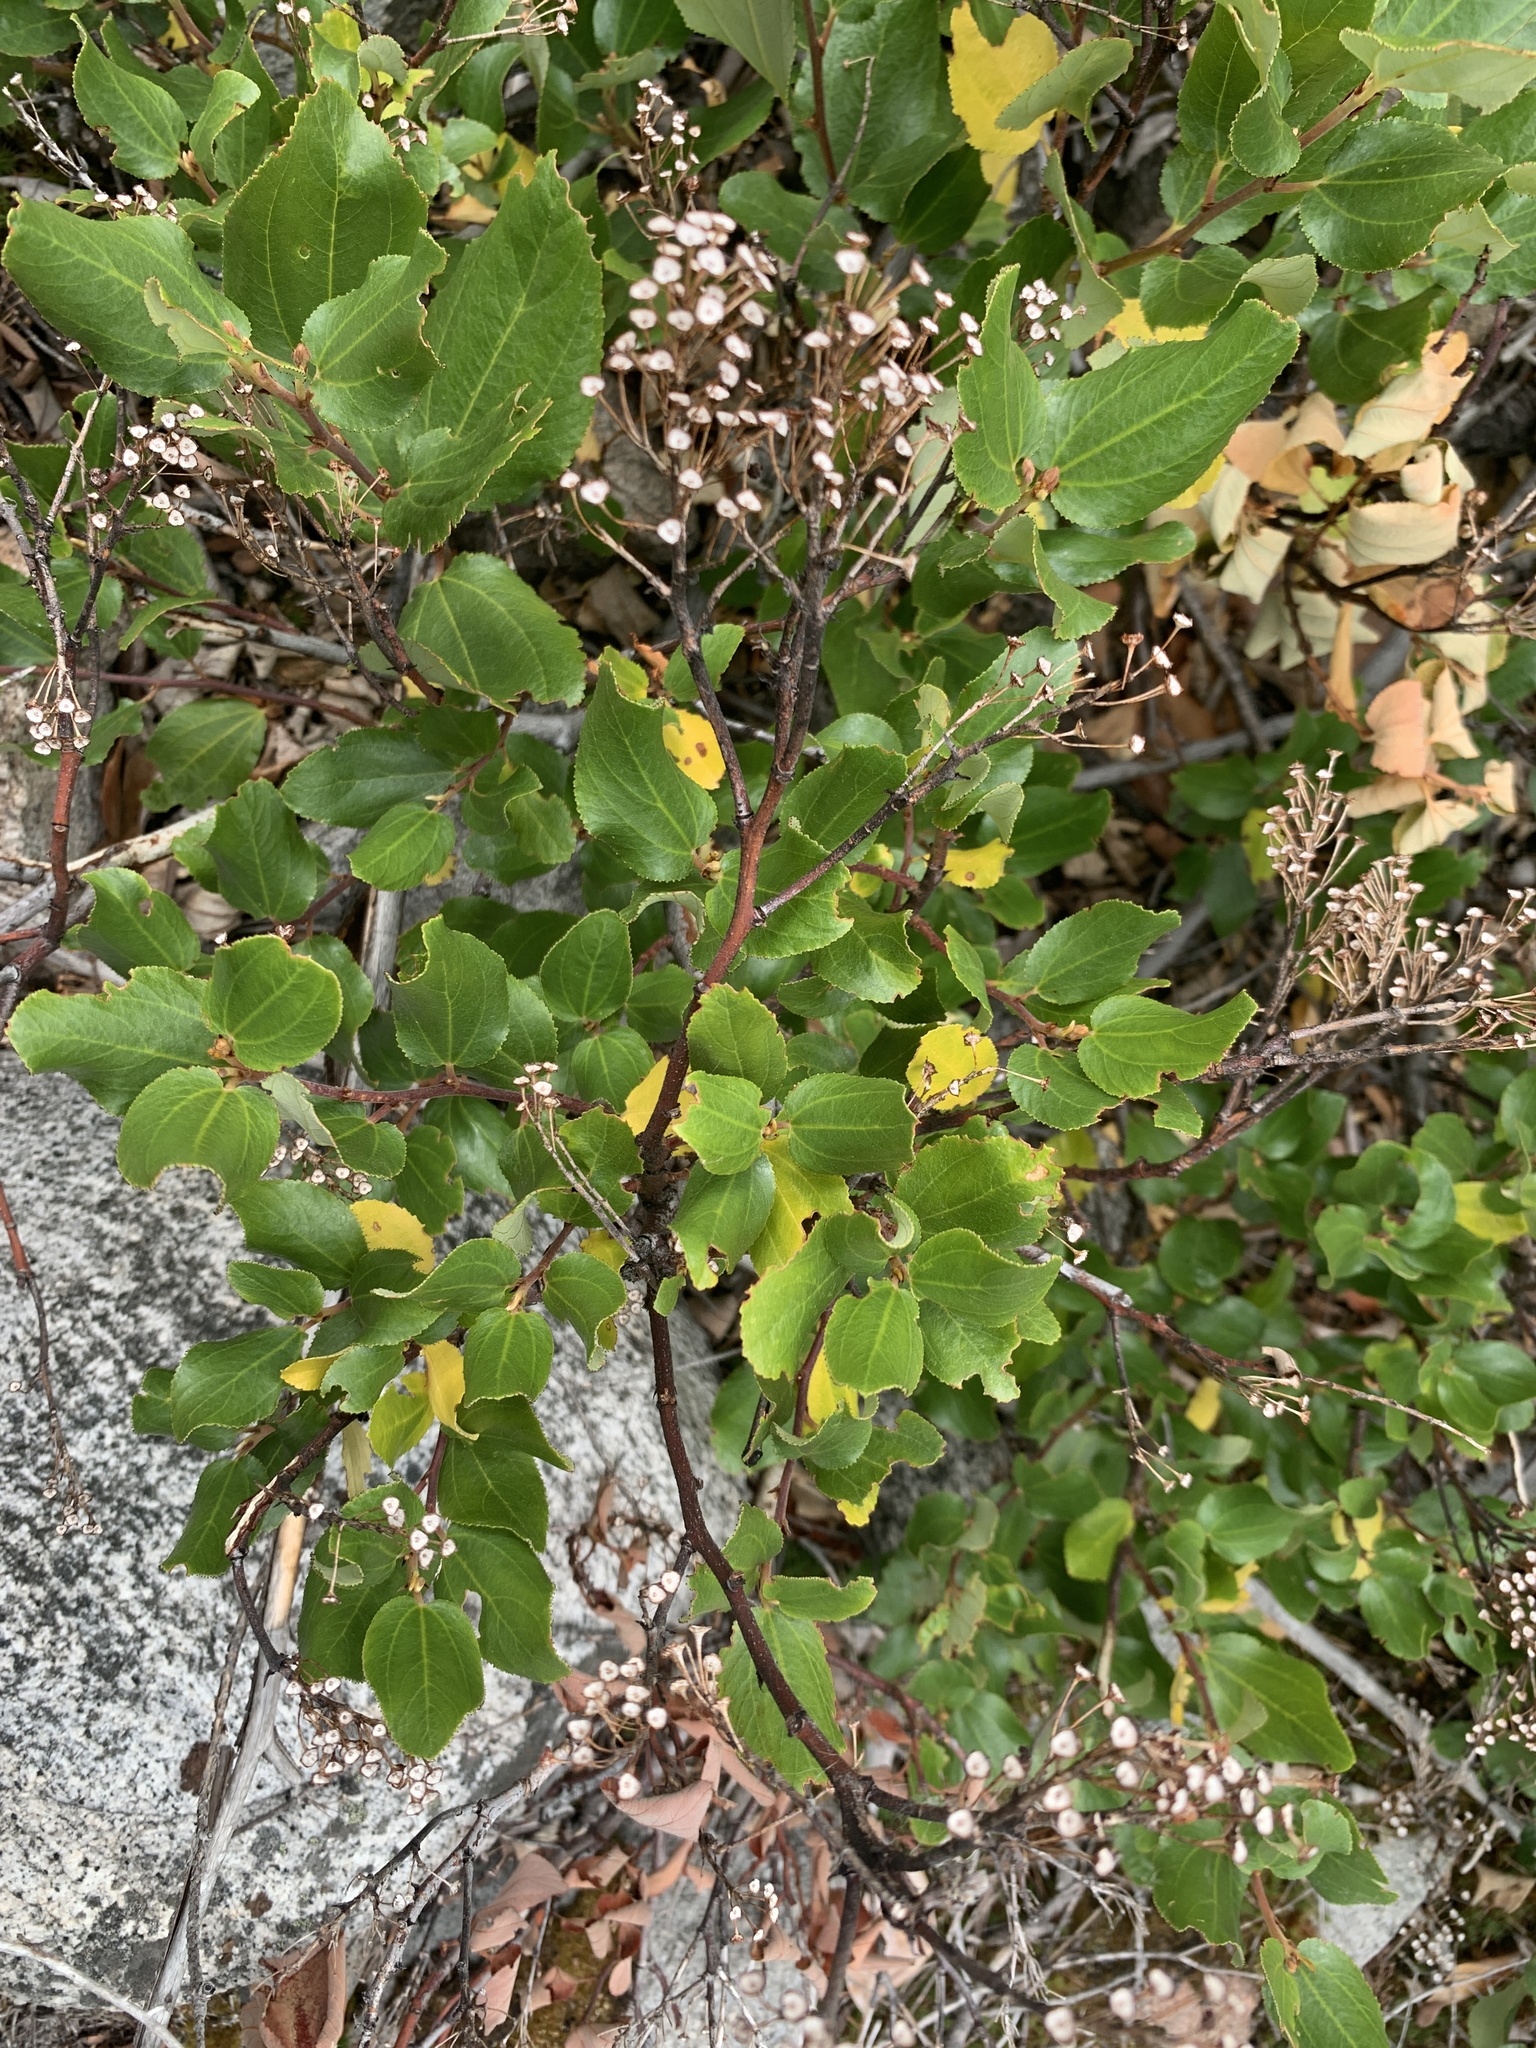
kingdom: Plantae
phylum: Tracheophyta
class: Magnoliopsida
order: Rosales
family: Rhamnaceae
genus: Ceanothus
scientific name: Ceanothus velutinus
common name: Snowbrush
